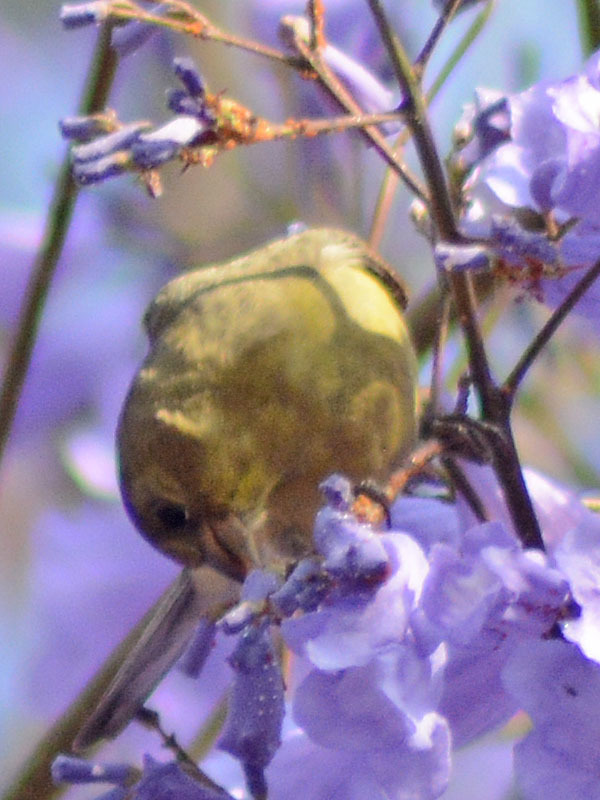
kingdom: Animalia
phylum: Chordata
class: Aves
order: Passeriformes
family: Fringillidae
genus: Spinus
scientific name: Spinus psaltria
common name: Lesser goldfinch
